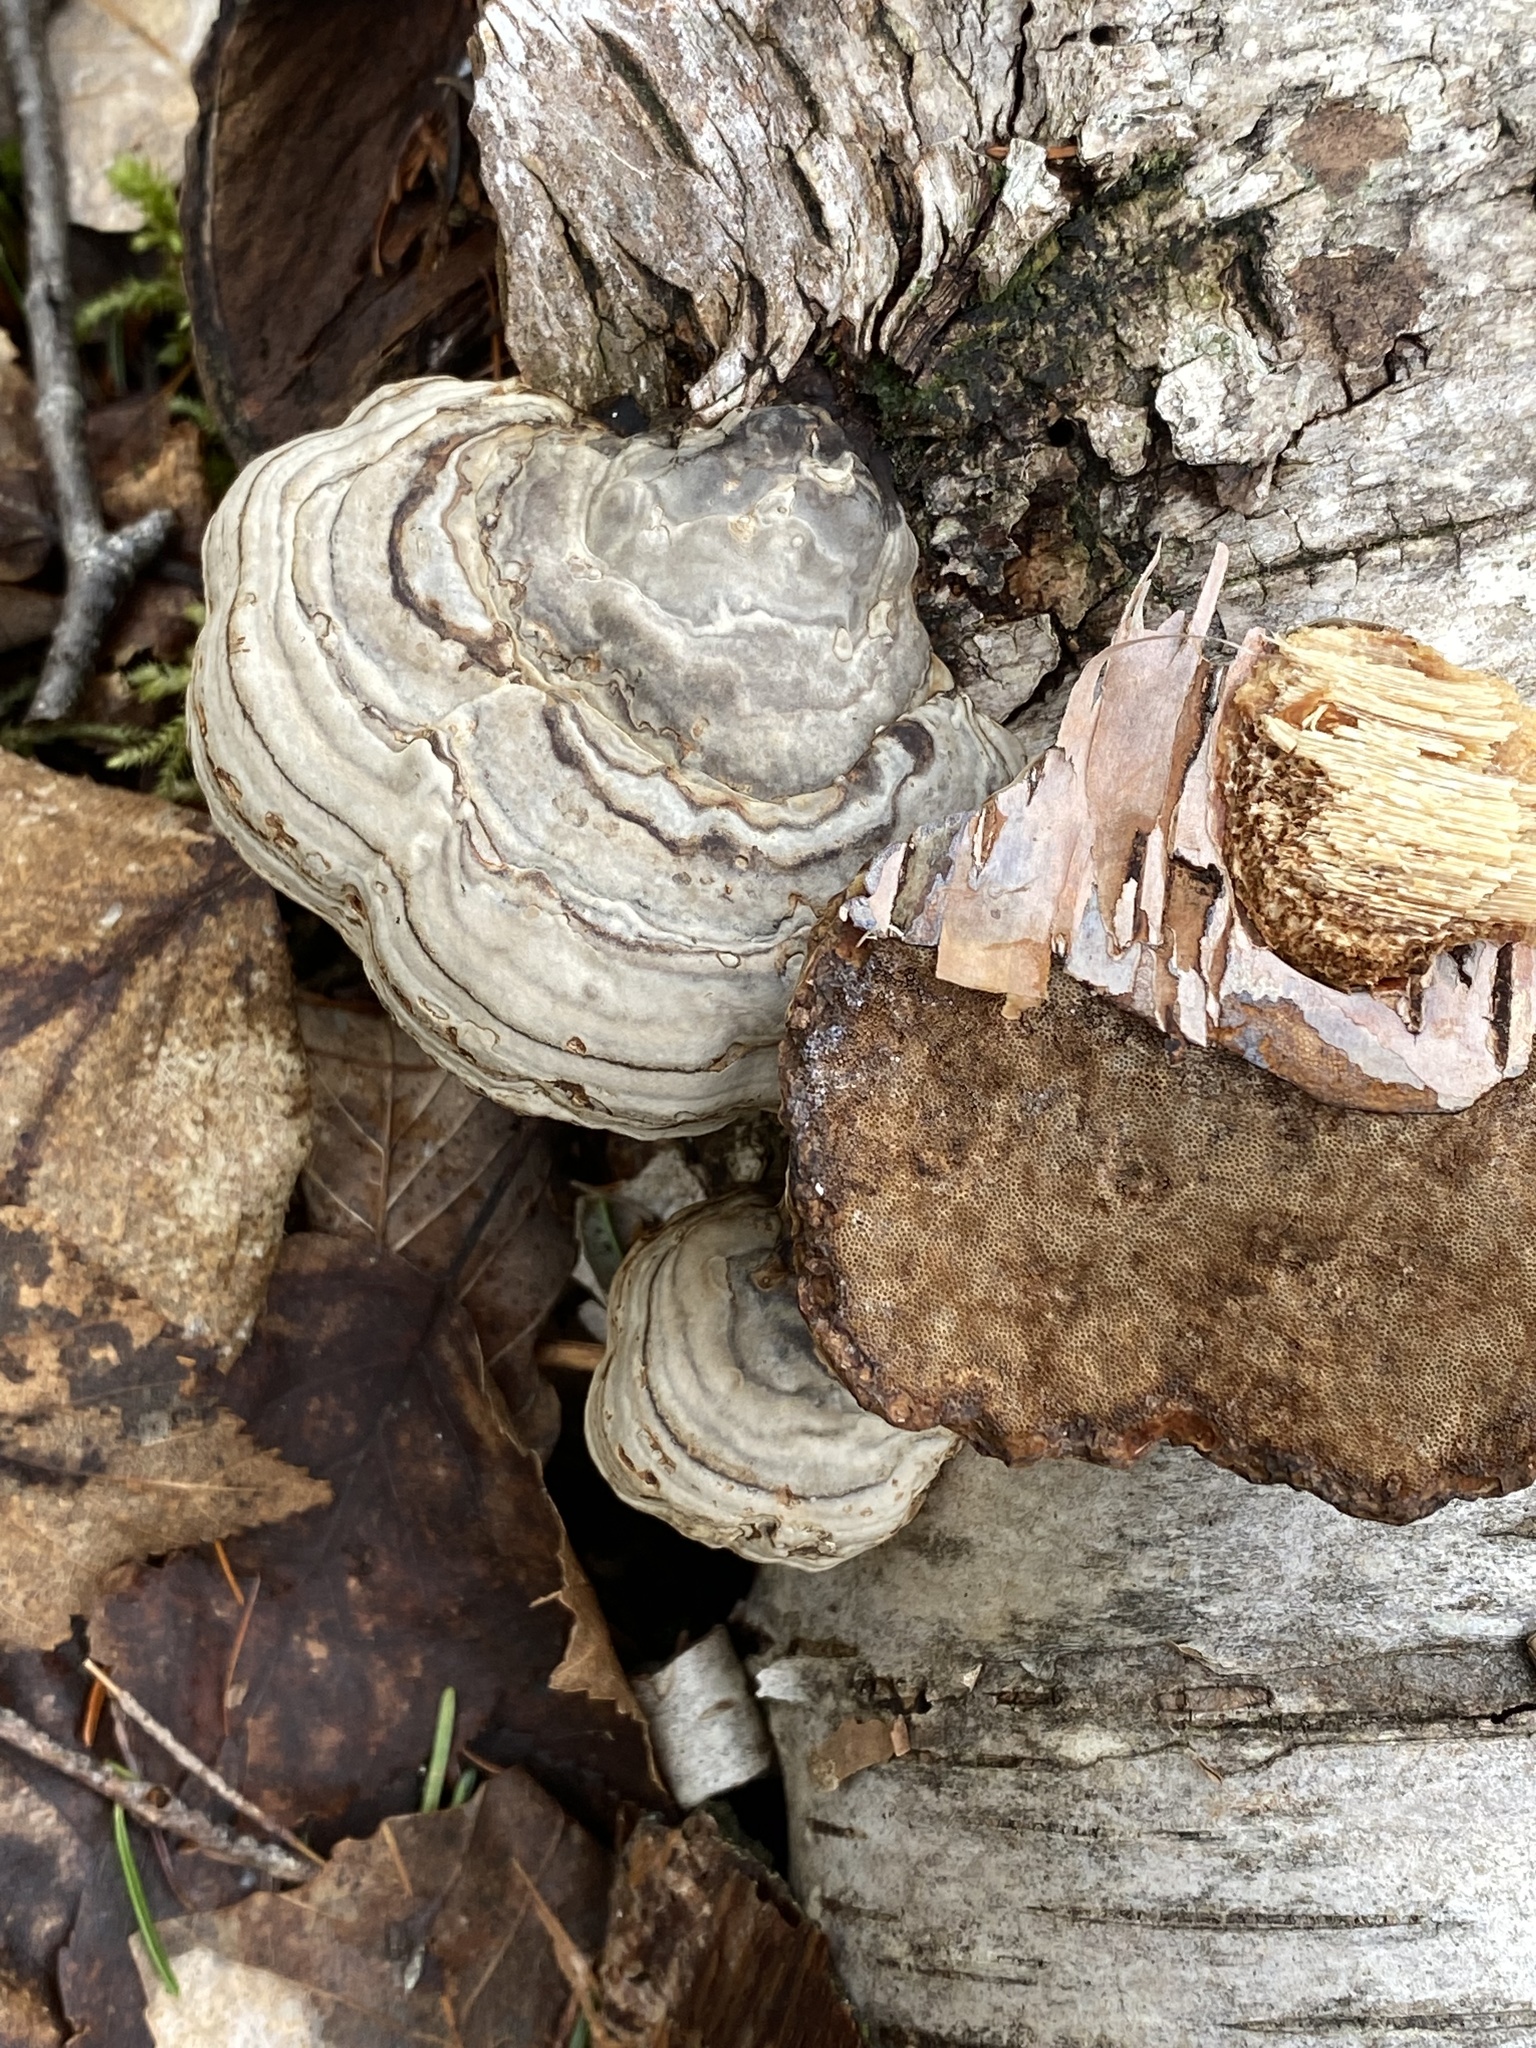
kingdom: Fungi
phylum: Basidiomycota
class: Agaricomycetes
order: Polyporales
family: Polyporaceae
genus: Fomes
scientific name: Fomes fomentarius
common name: Hoof fungus
